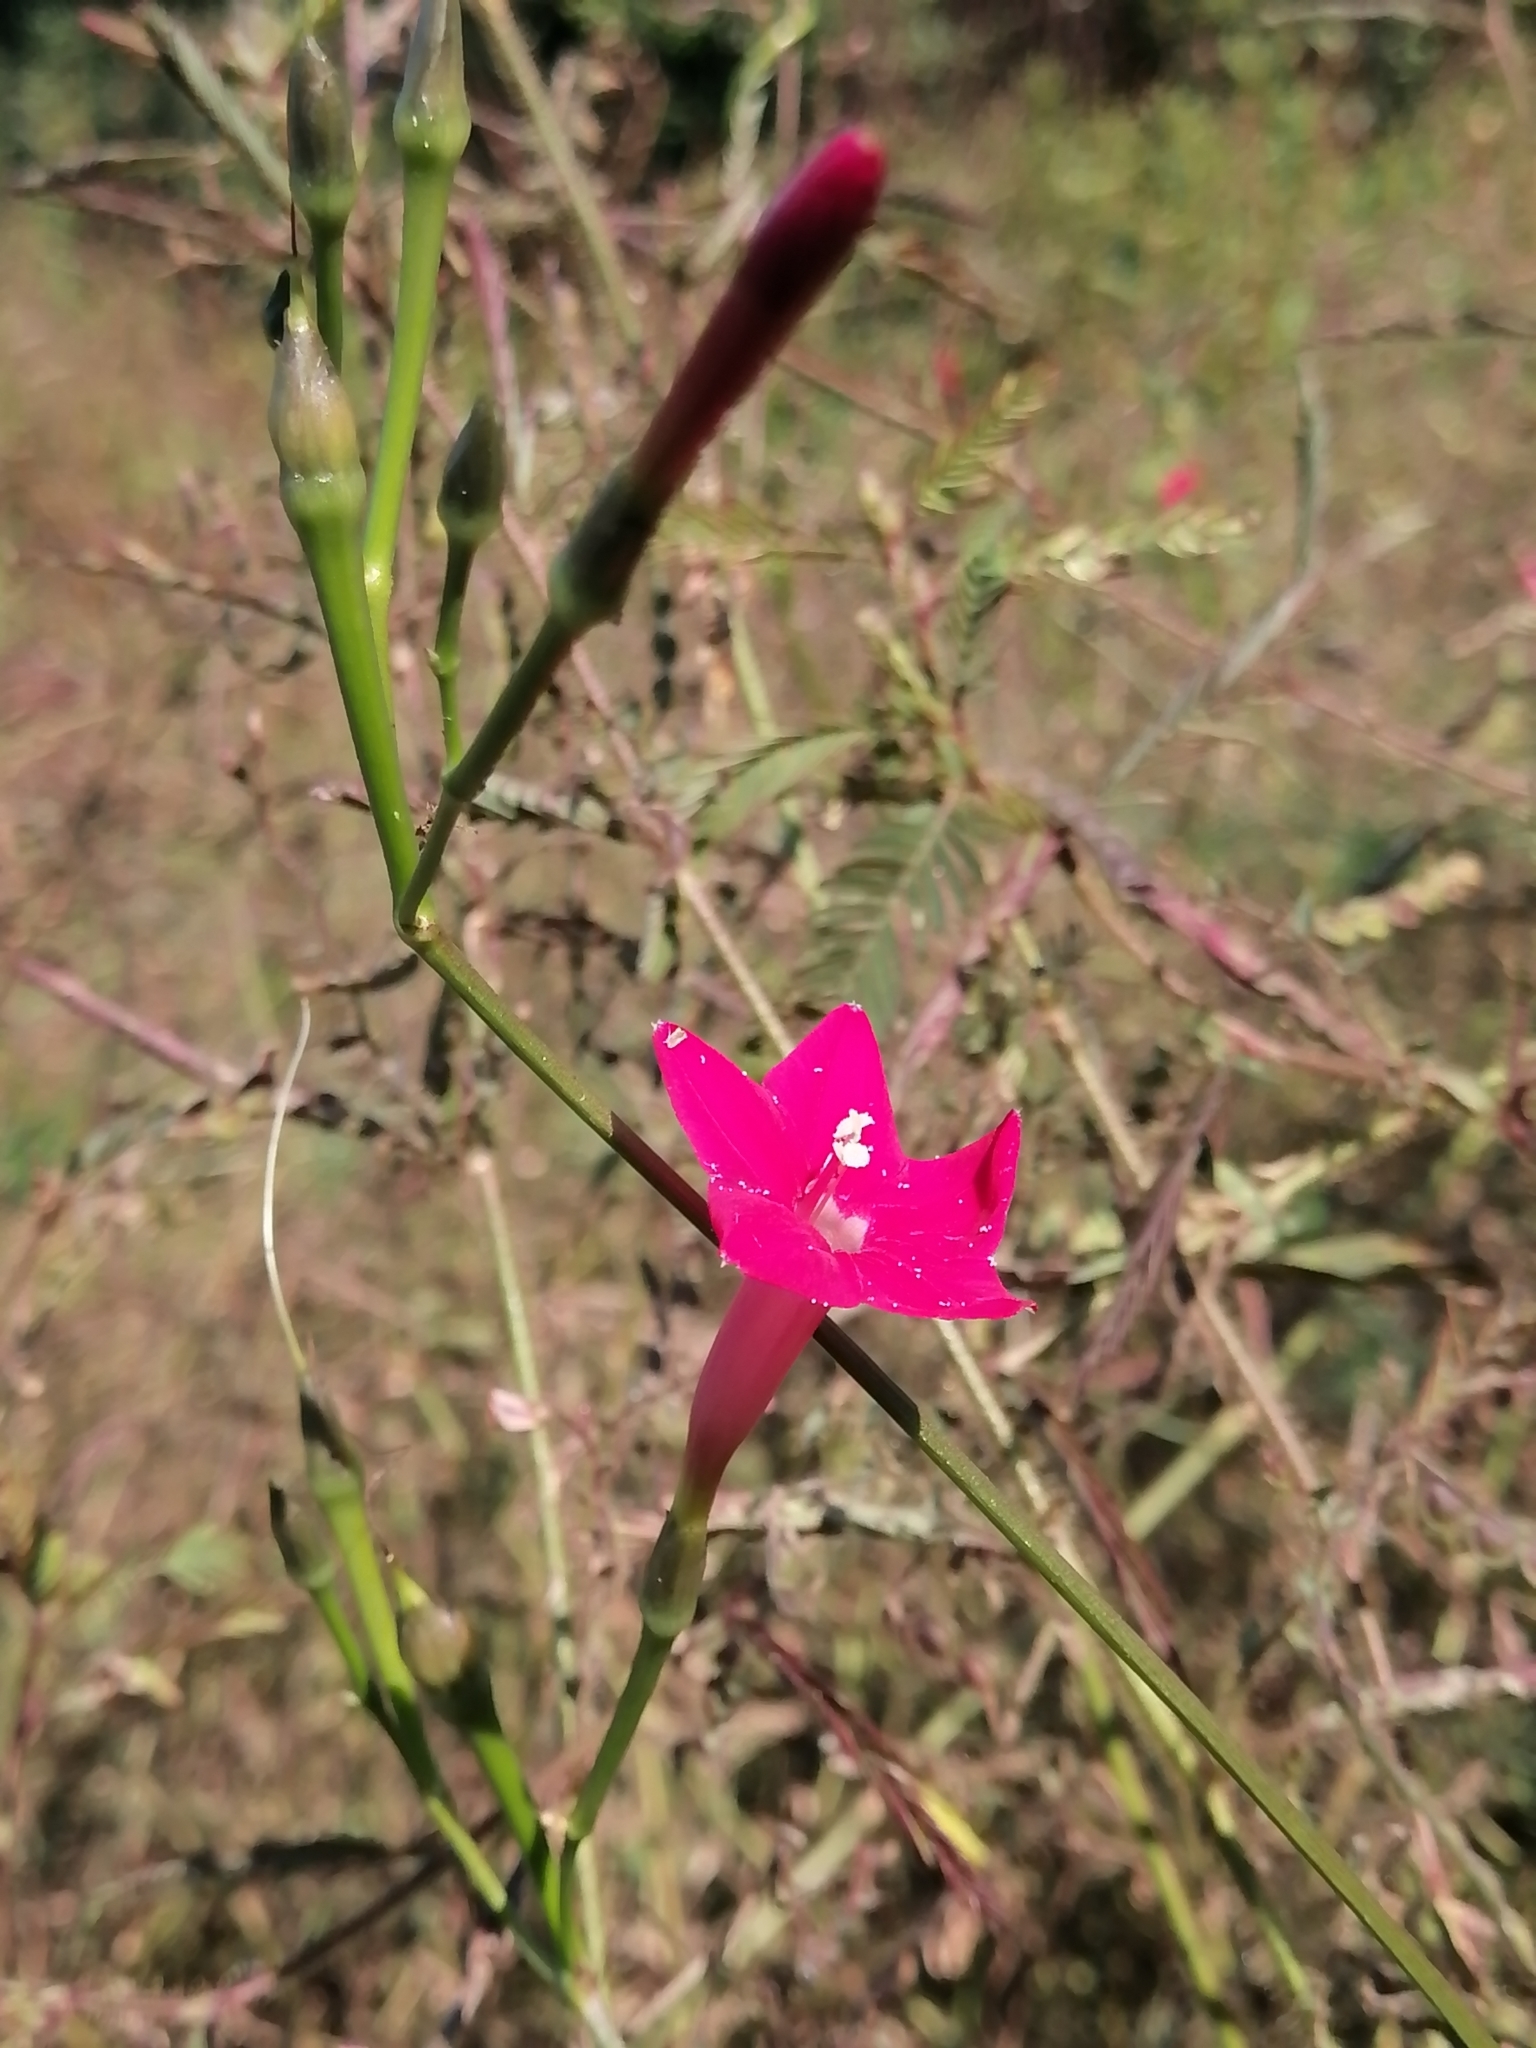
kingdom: Plantae
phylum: Tracheophyta
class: Magnoliopsida
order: Solanales
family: Convolvulaceae
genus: Ipomoea
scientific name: Ipomoea quamoclit
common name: Cypress vine
